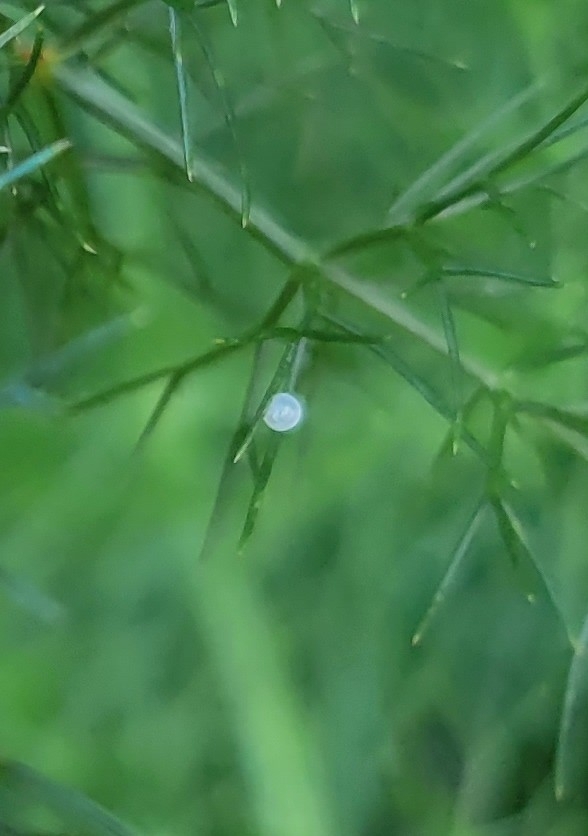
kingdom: Animalia
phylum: Arthropoda
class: Insecta
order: Lepidoptera
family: Papilionidae
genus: Papilio
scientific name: Papilio polyxenes
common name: Black swallowtail
